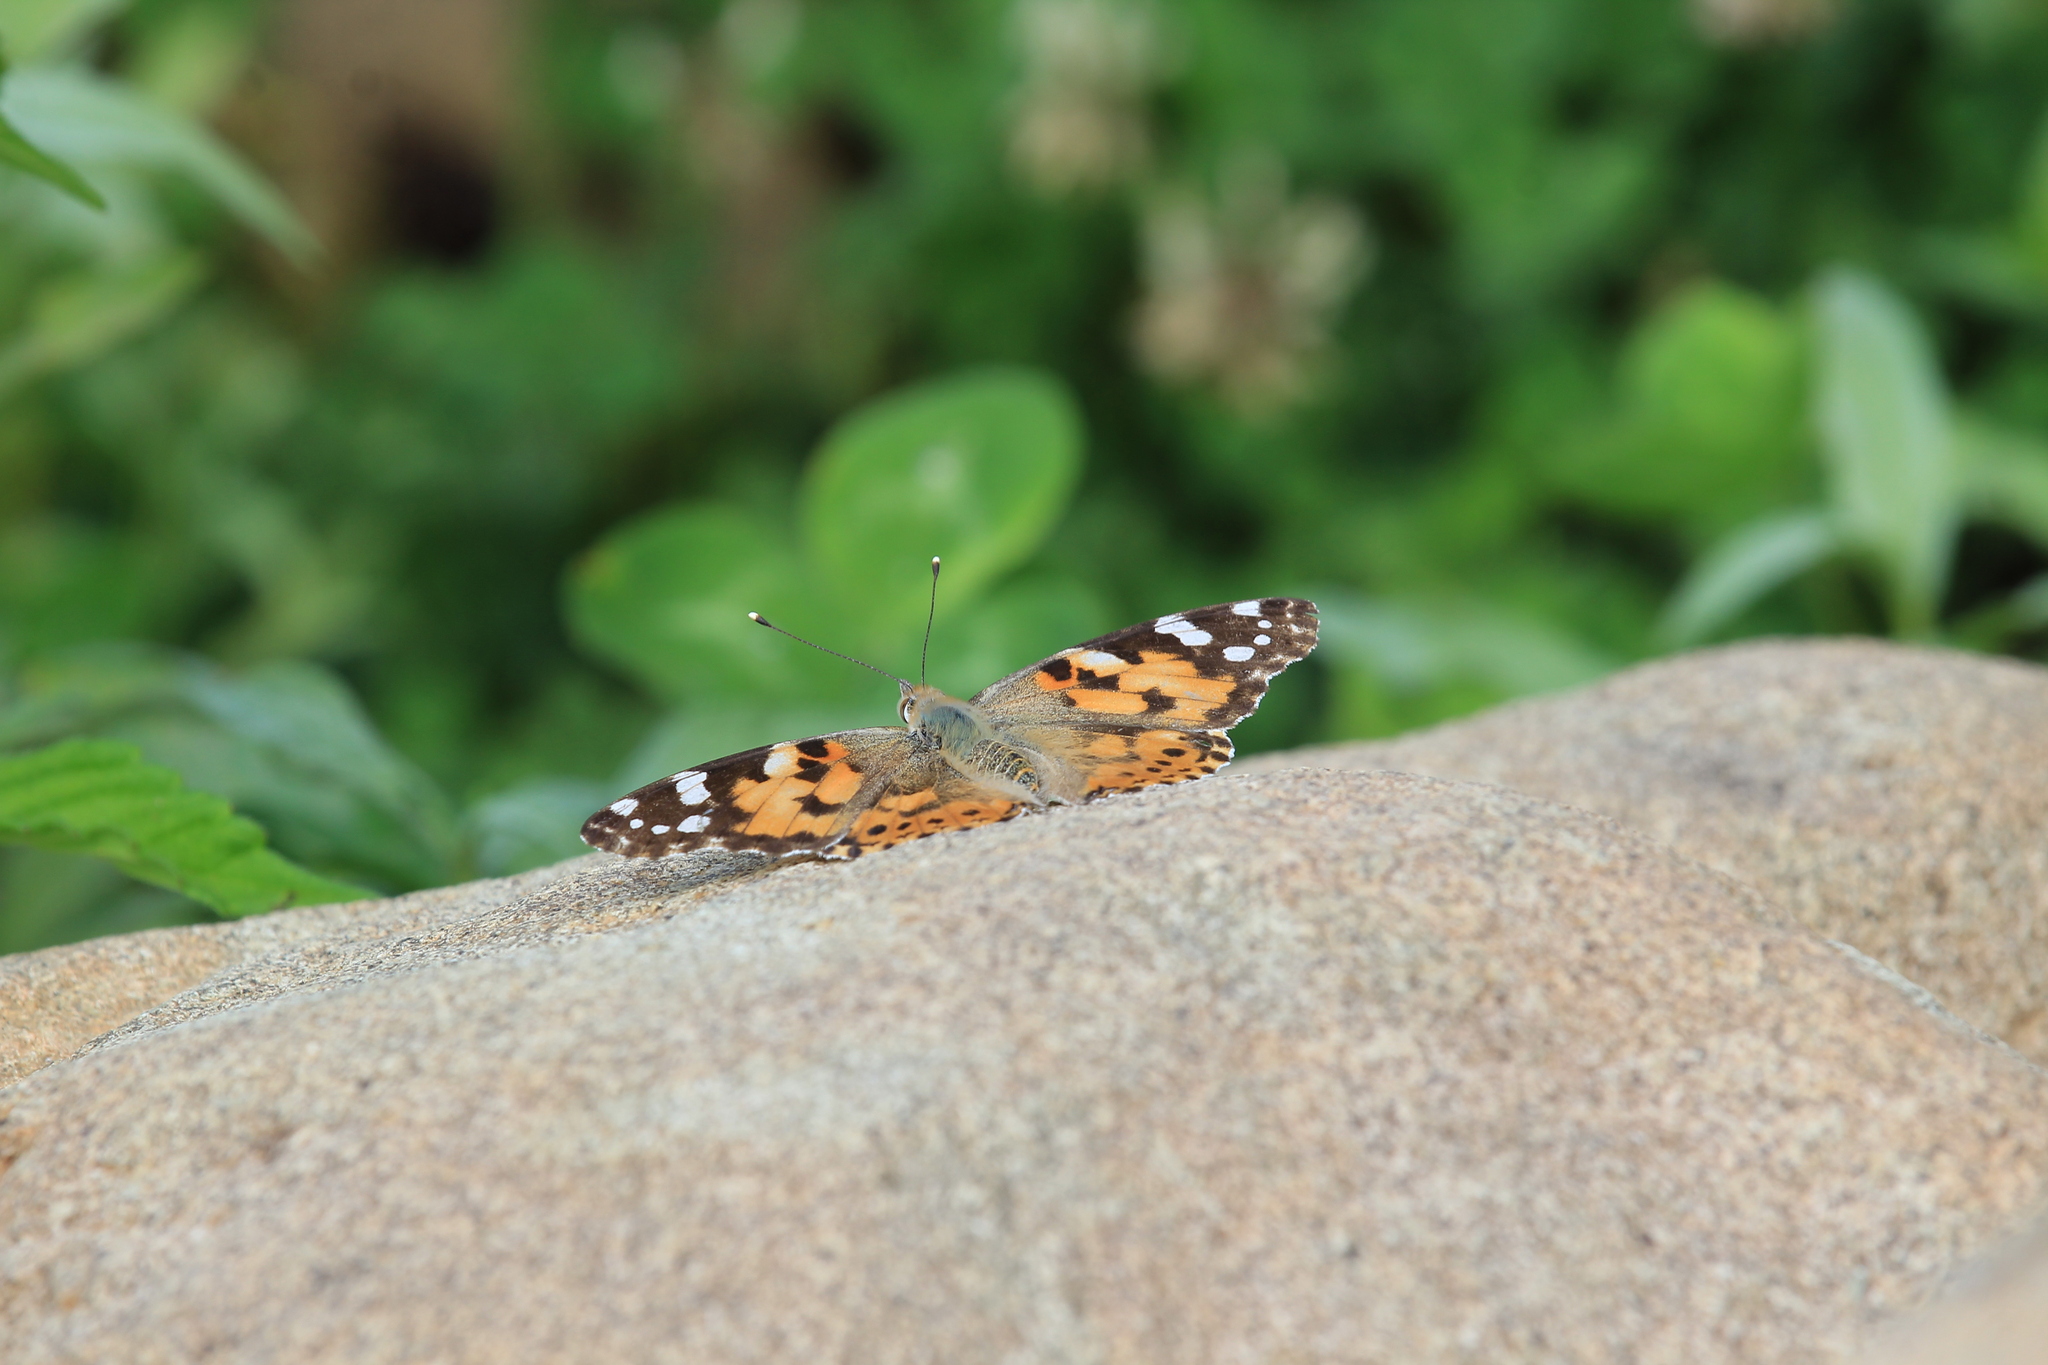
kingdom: Animalia
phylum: Arthropoda
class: Insecta
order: Lepidoptera
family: Nymphalidae
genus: Vanessa
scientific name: Vanessa cardui
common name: Painted lady
